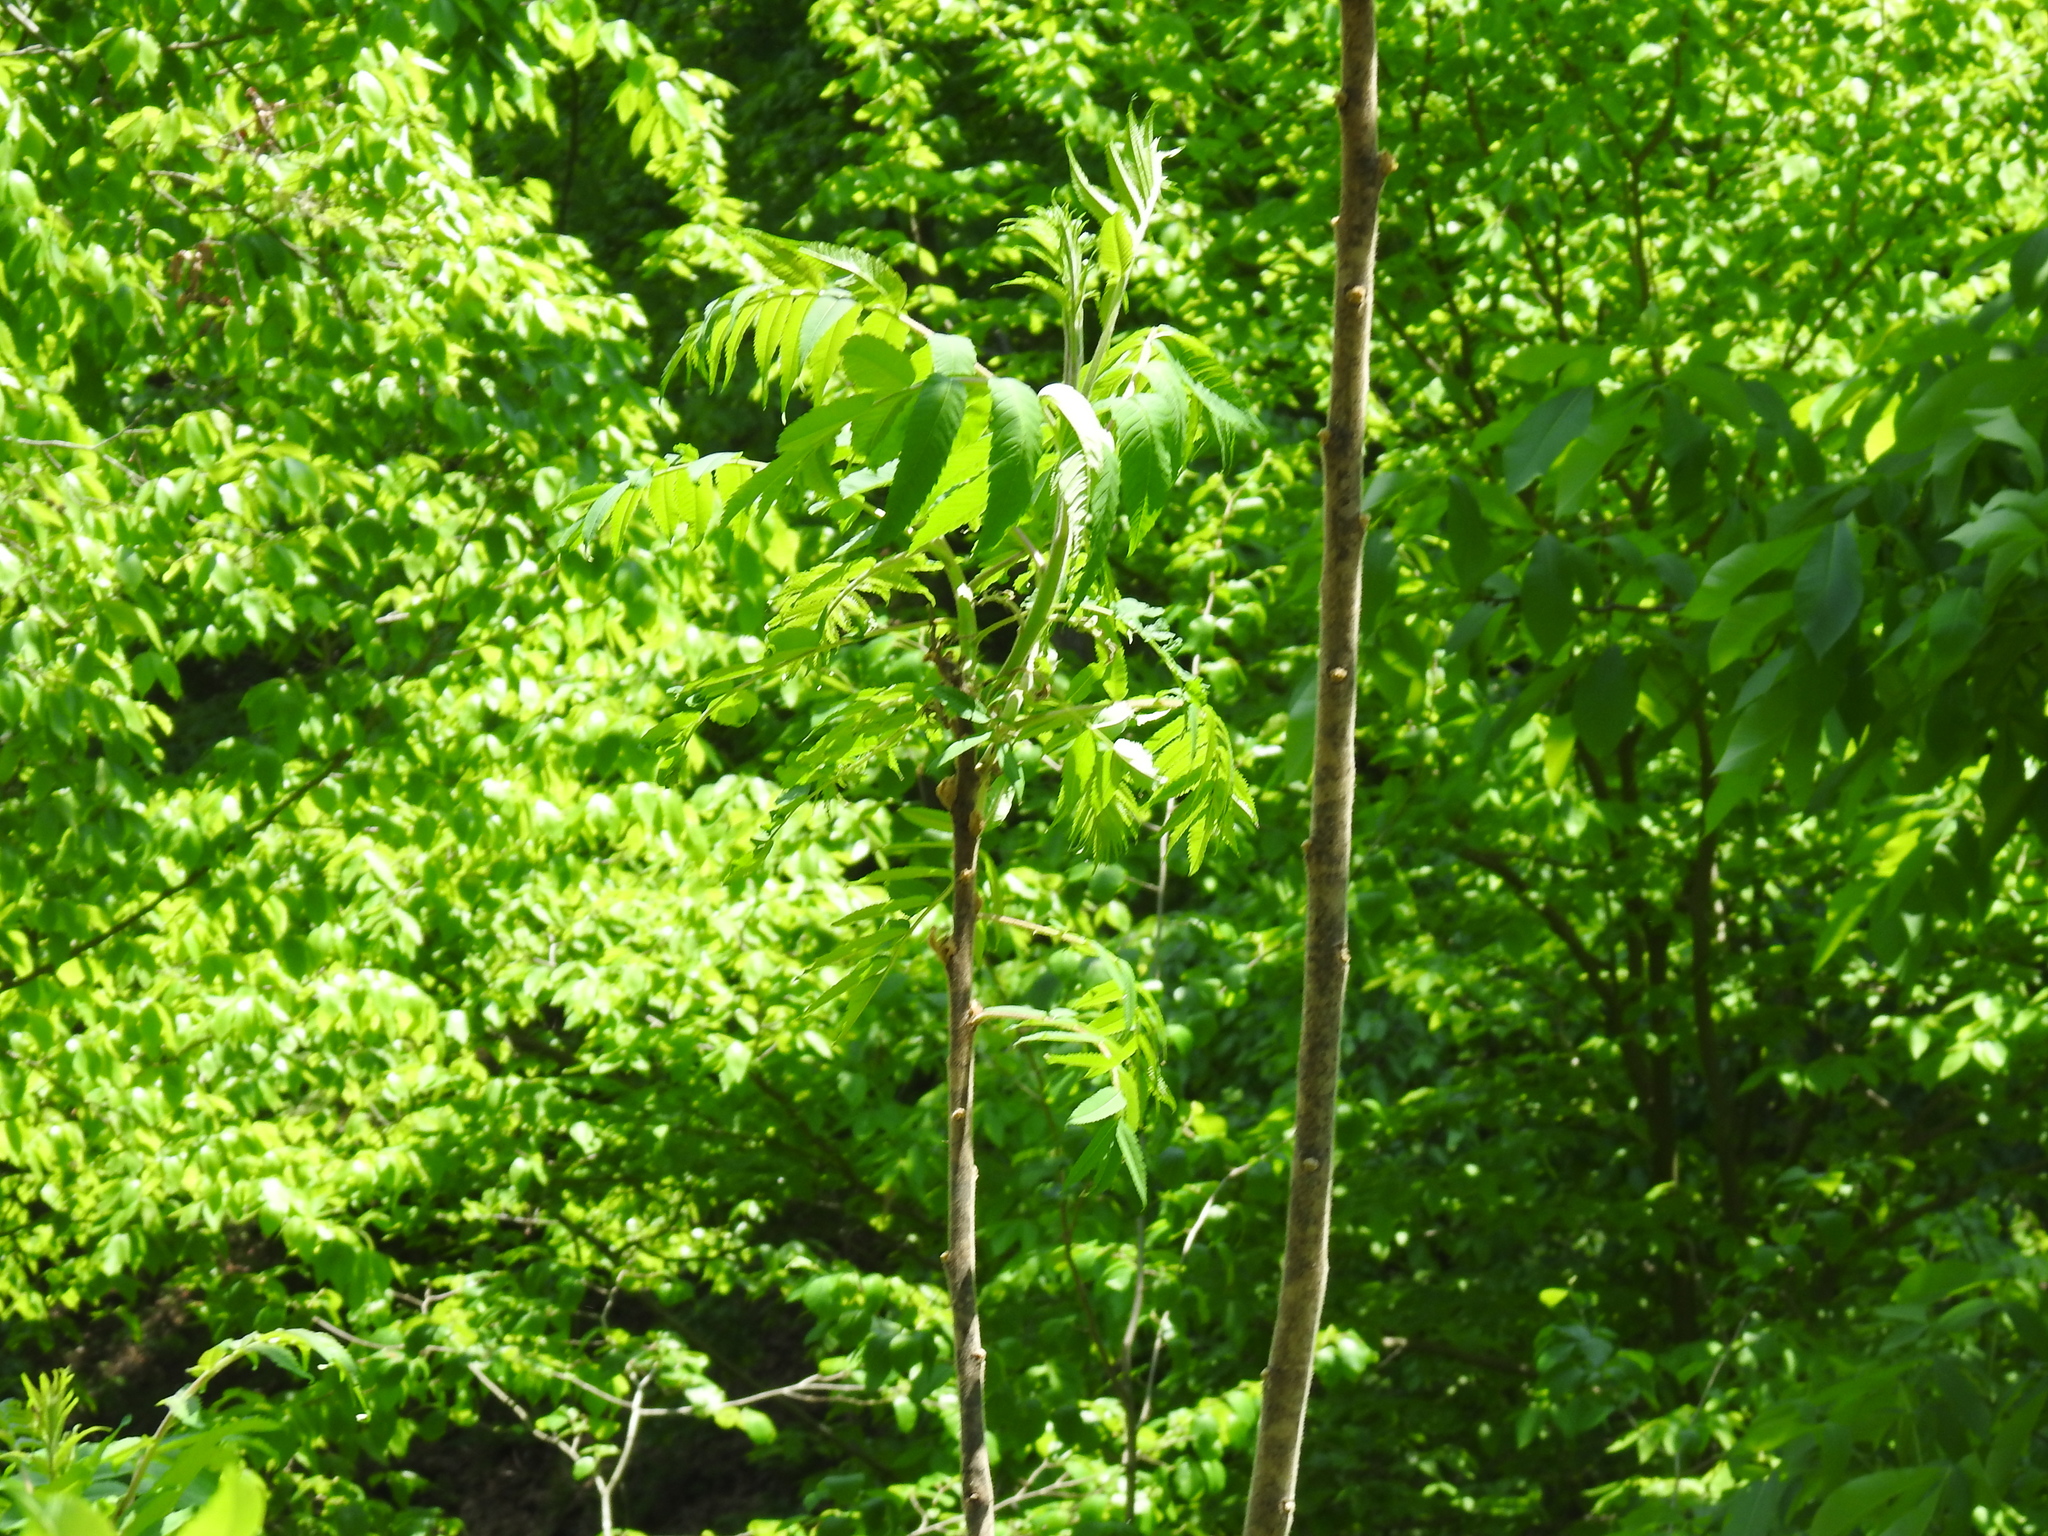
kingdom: Plantae
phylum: Tracheophyta
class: Magnoliopsida
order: Sapindales
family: Anacardiaceae
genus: Rhus
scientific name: Rhus typhina
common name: Staghorn sumac
